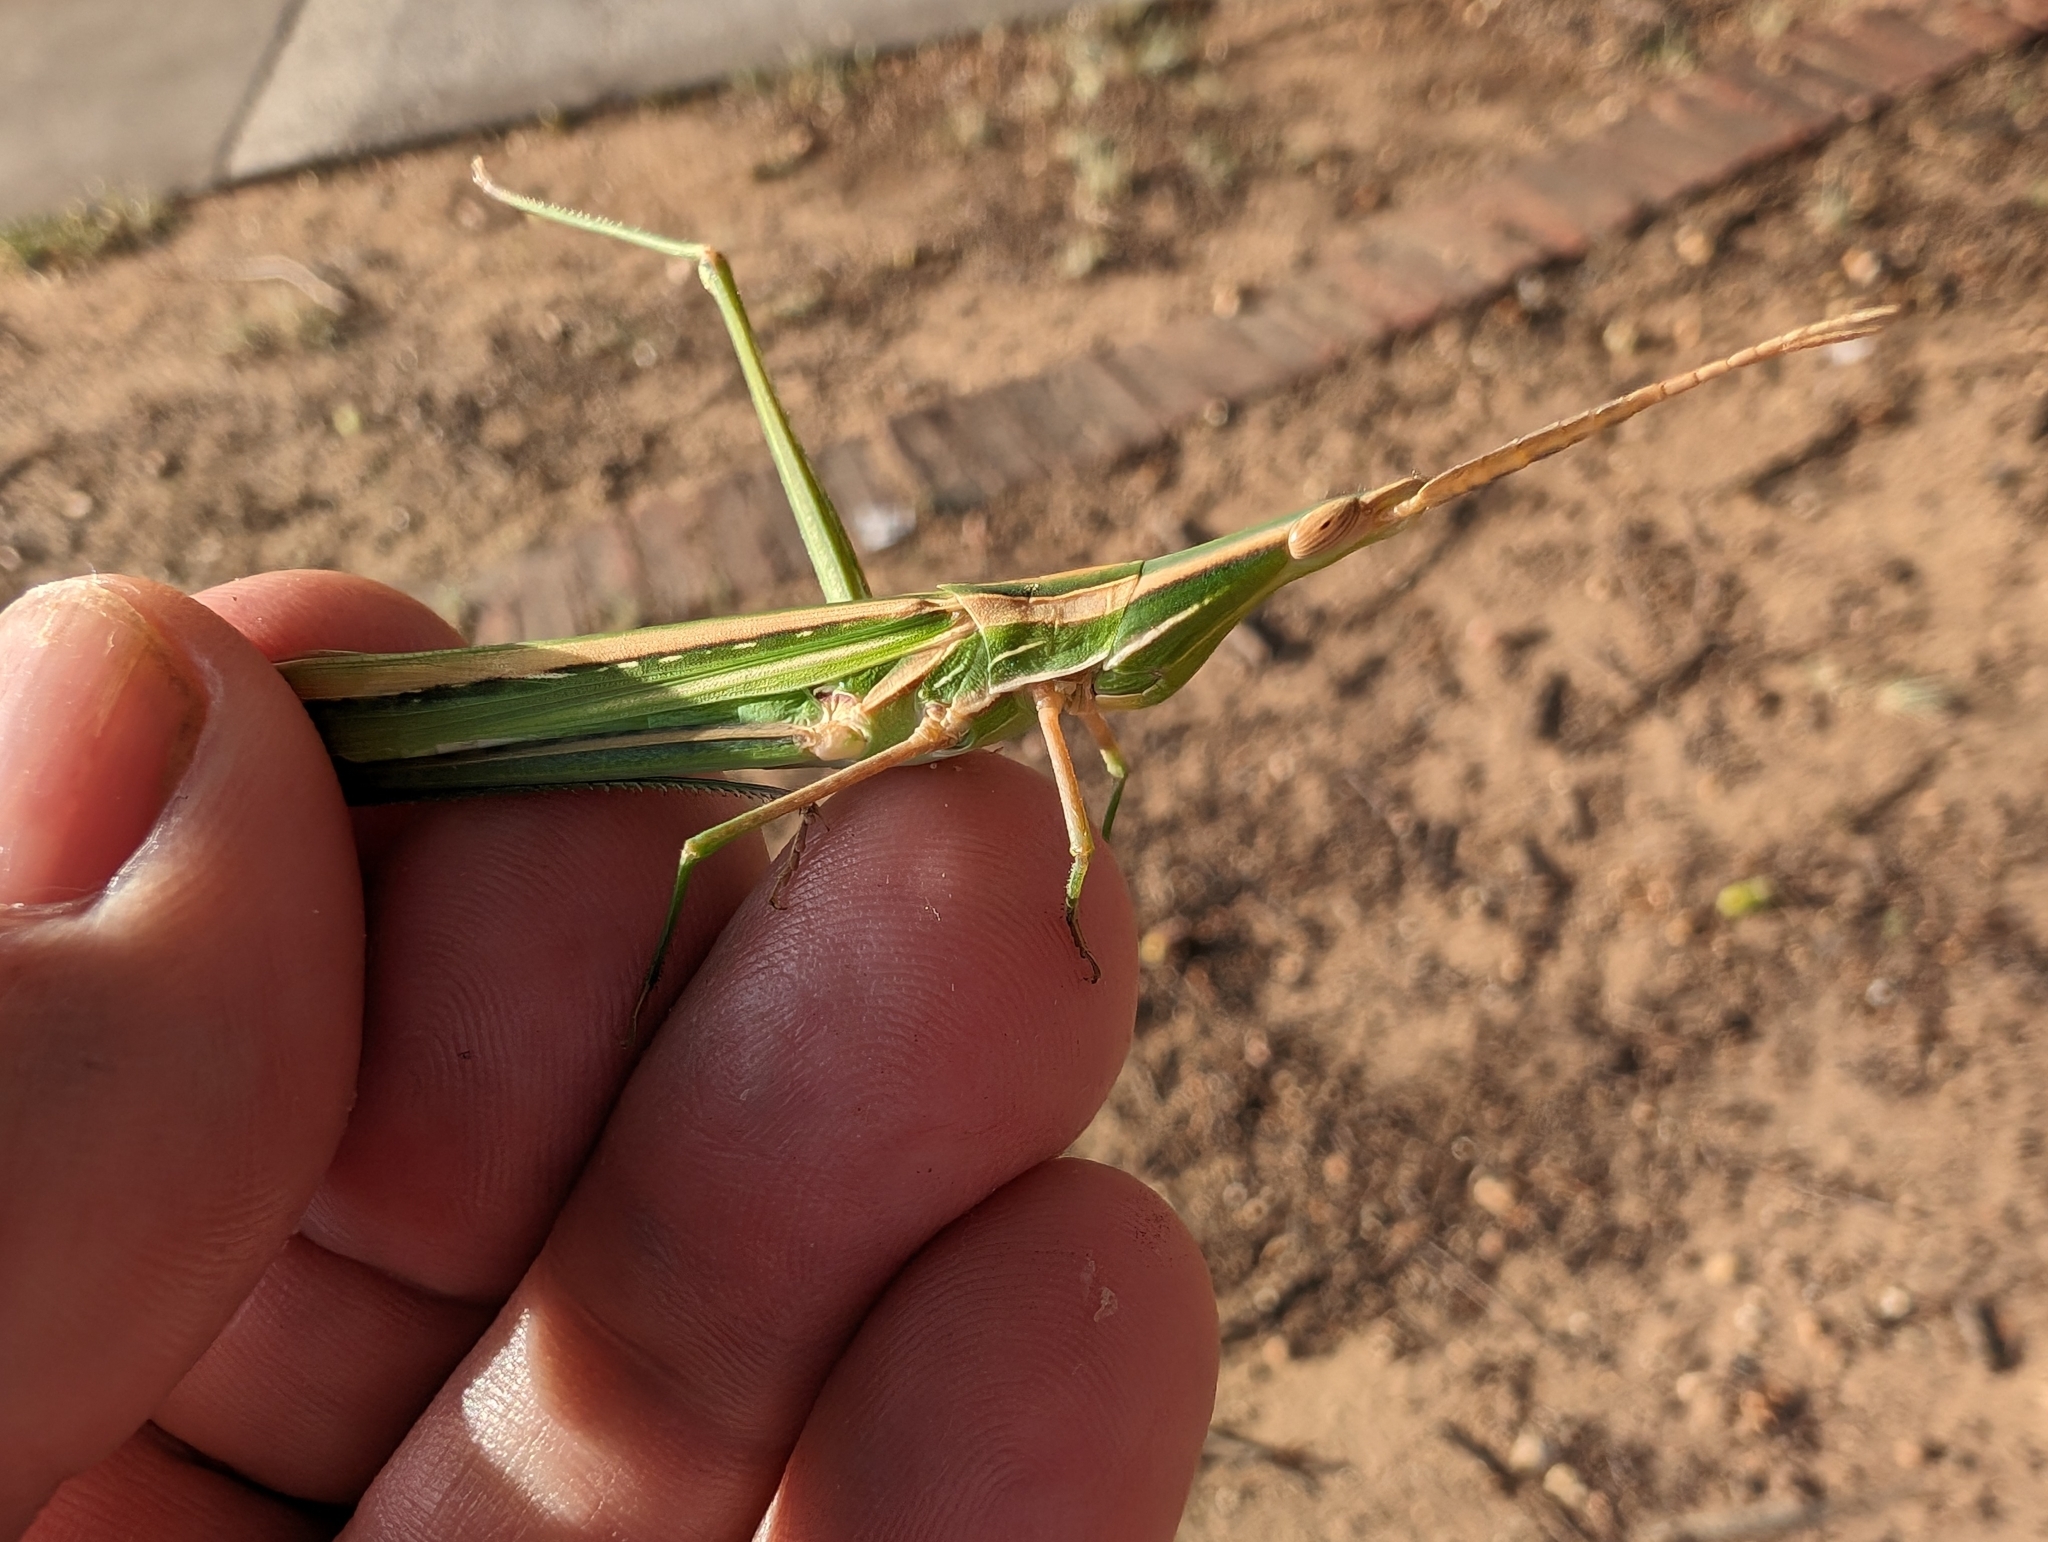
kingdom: Animalia
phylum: Arthropoda
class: Insecta
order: Orthoptera
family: Acrididae
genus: Acrida
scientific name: Acrida conica
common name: Giant green slantface
